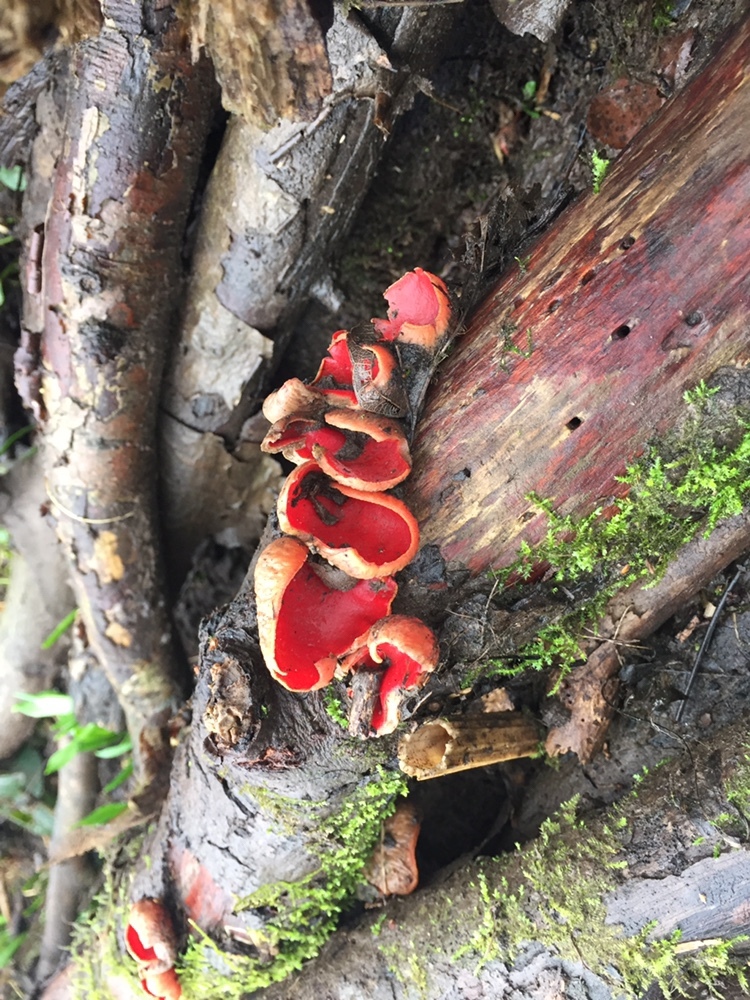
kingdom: Fungi
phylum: Ascomycota
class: Pezizomycetes
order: Pezizales
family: Sarcoscyphaceae
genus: Sarcoscypha
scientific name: Sarcoscypha
